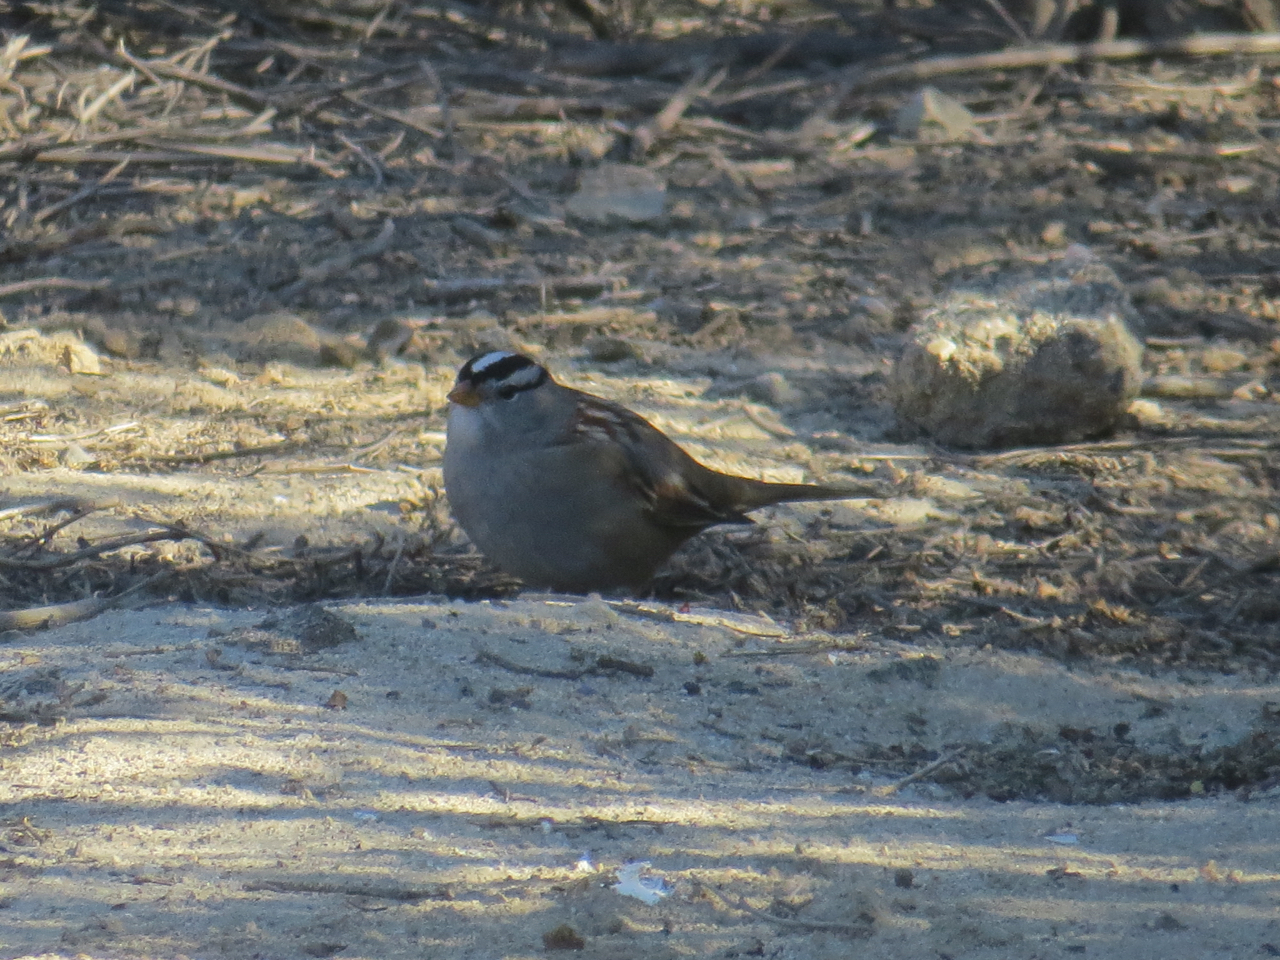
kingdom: Animalia
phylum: Chordata
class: Aves
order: Passeriformes
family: Passerellidae
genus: Zonotrichia
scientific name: Zonotrichia leucophrys
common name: White-crowned sparrow
